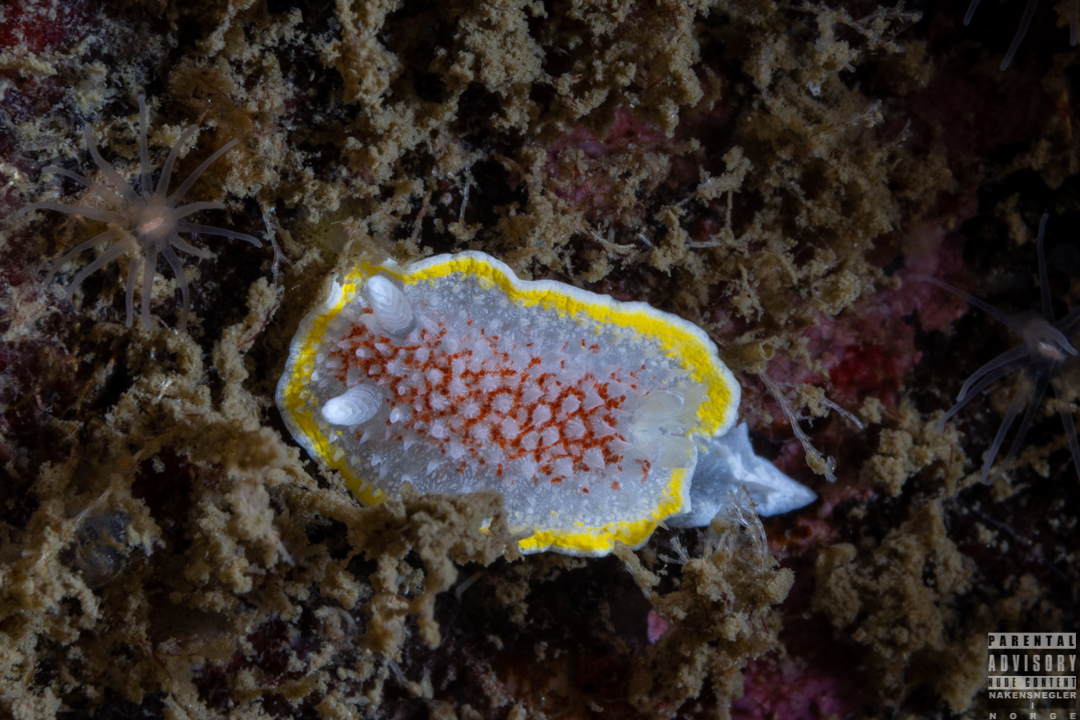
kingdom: Animalia
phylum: Mollusca
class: Gastropoda
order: Nudibranchia
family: Calycidorididae
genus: Diaphorodoris
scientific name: Diaphorodoris luteocincta
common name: Fried egg nudibranch
